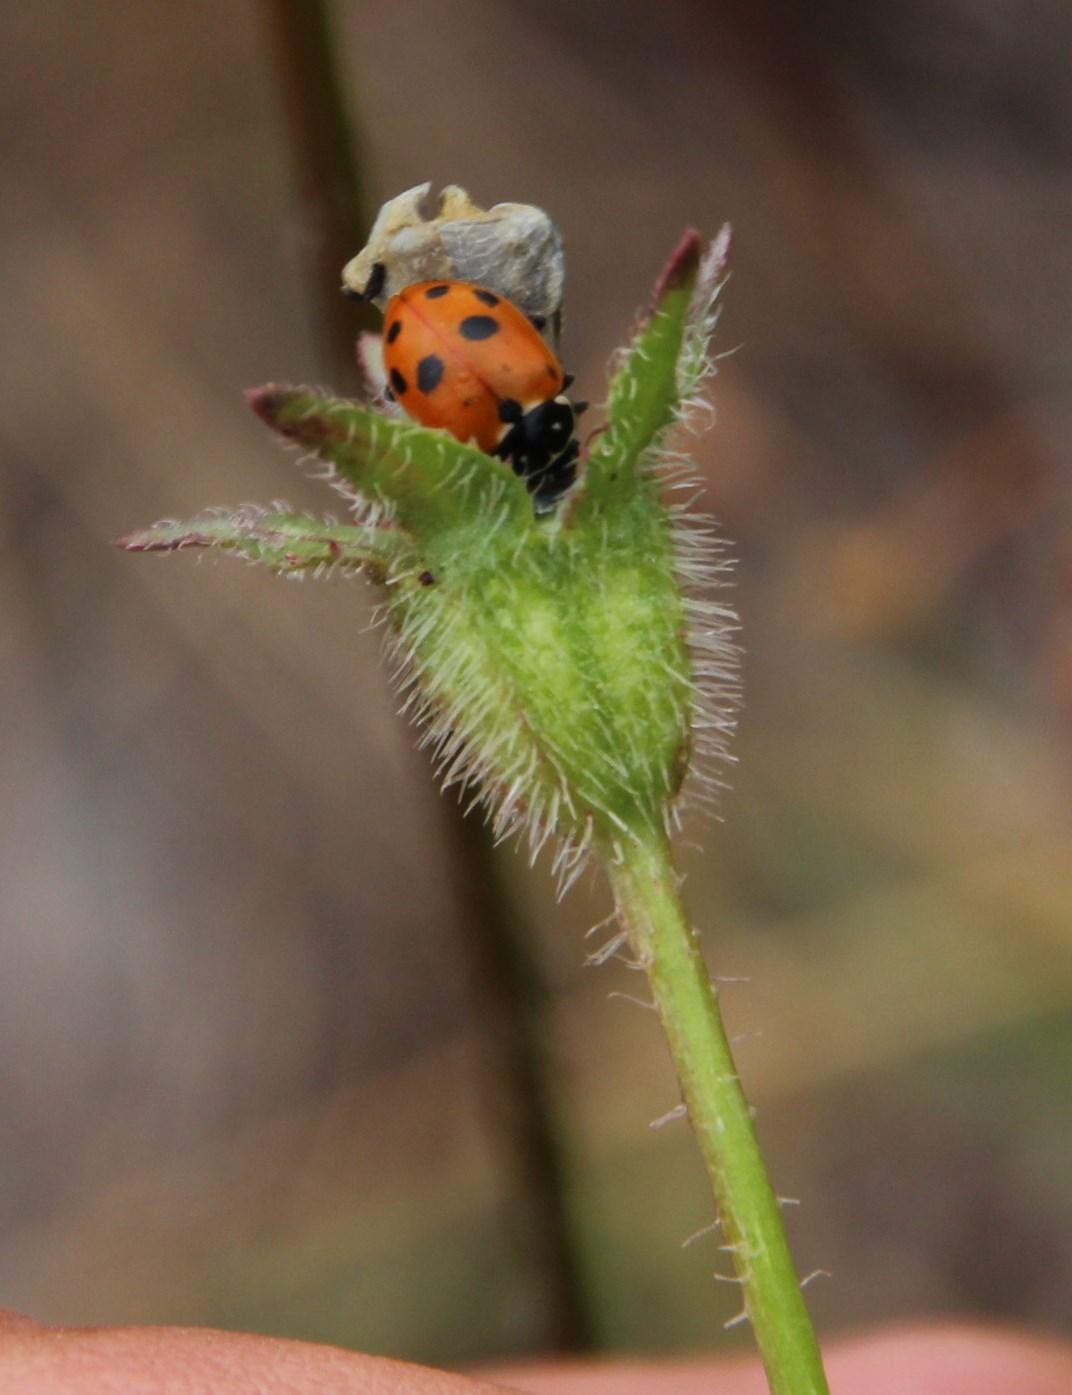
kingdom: Animalia
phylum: Arthropoda
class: Insecta
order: Coleoptera
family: Coccinellidae
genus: Hippodamia
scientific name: Hippodamia variegata
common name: Ladybird beetle
